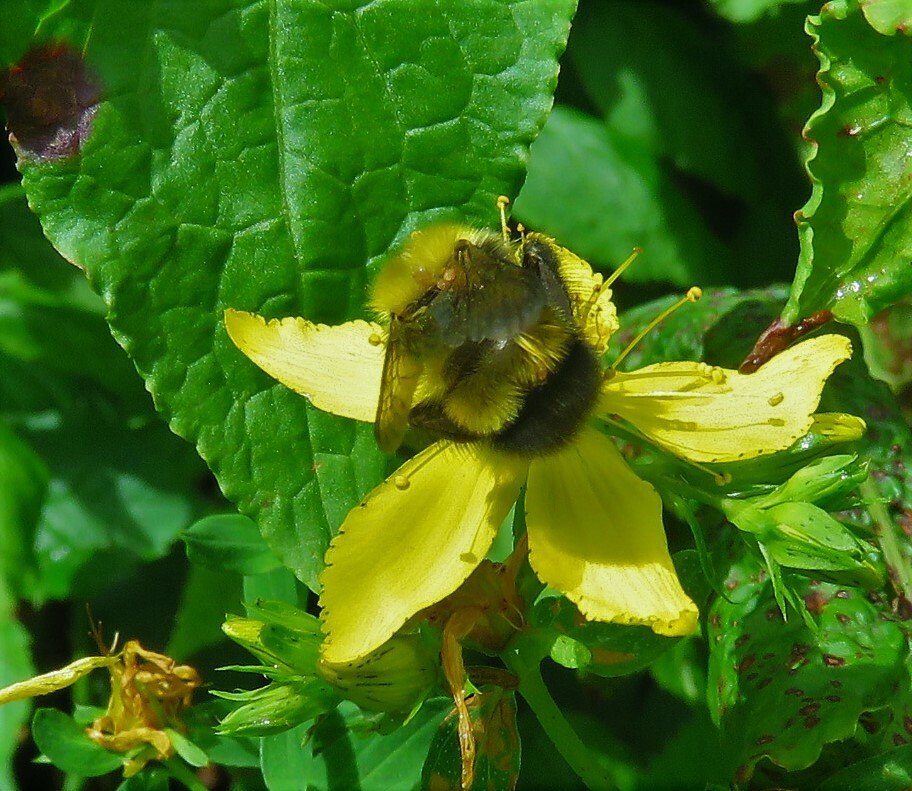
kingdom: Animalia
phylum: Arthropoda
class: Insecta
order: Hymenoptera
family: Apidae
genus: Bombus
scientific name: Bombus perplexus
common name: Confusing bumble bee
